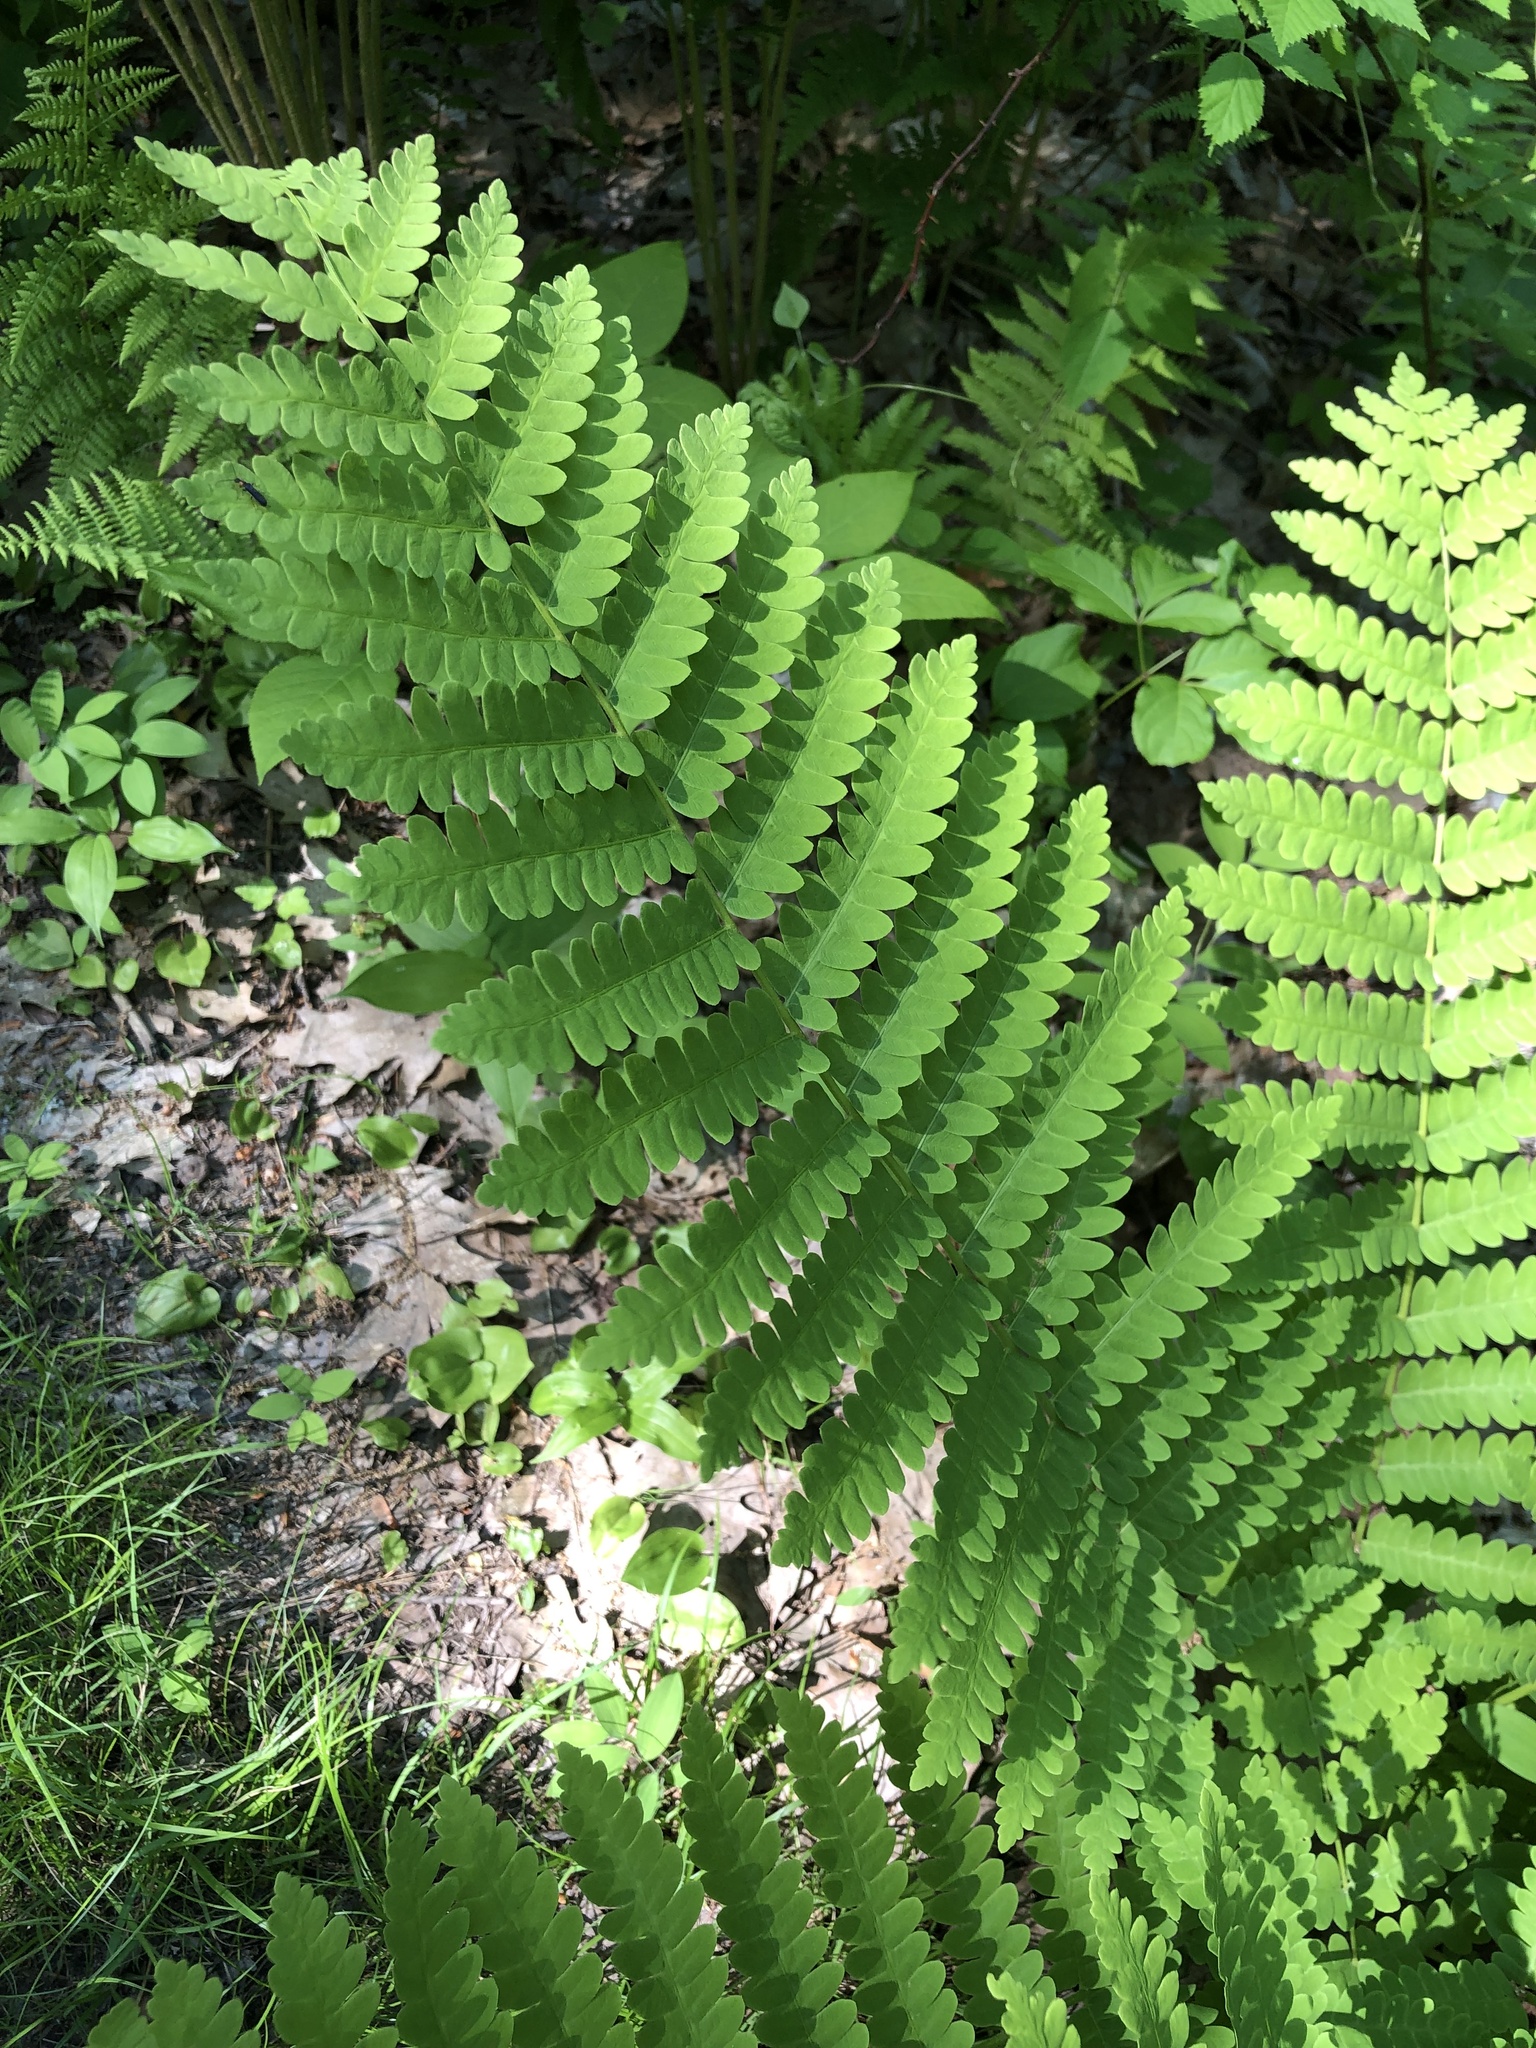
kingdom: Plantae
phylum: Tracheophyta
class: Polypodiopsida
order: Osmundales
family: Osmundaceae
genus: Claytosmunda
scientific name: Claytosmunda claytoniana
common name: Clayton's fern
